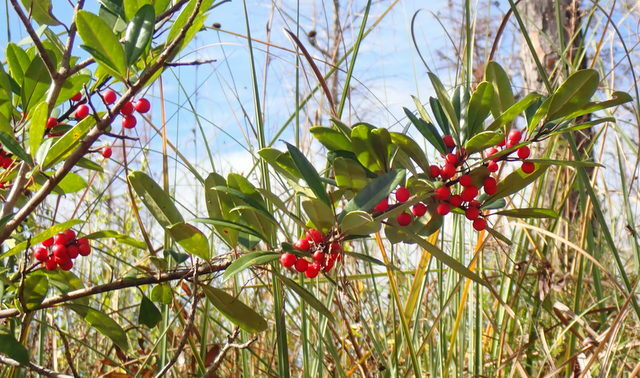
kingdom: Plantae
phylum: Tracheophyta
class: Magnoliopsida
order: Aquifoliales
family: Aquifoliaceae
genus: Ilex
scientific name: Ilex cassine
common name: Dahoon
